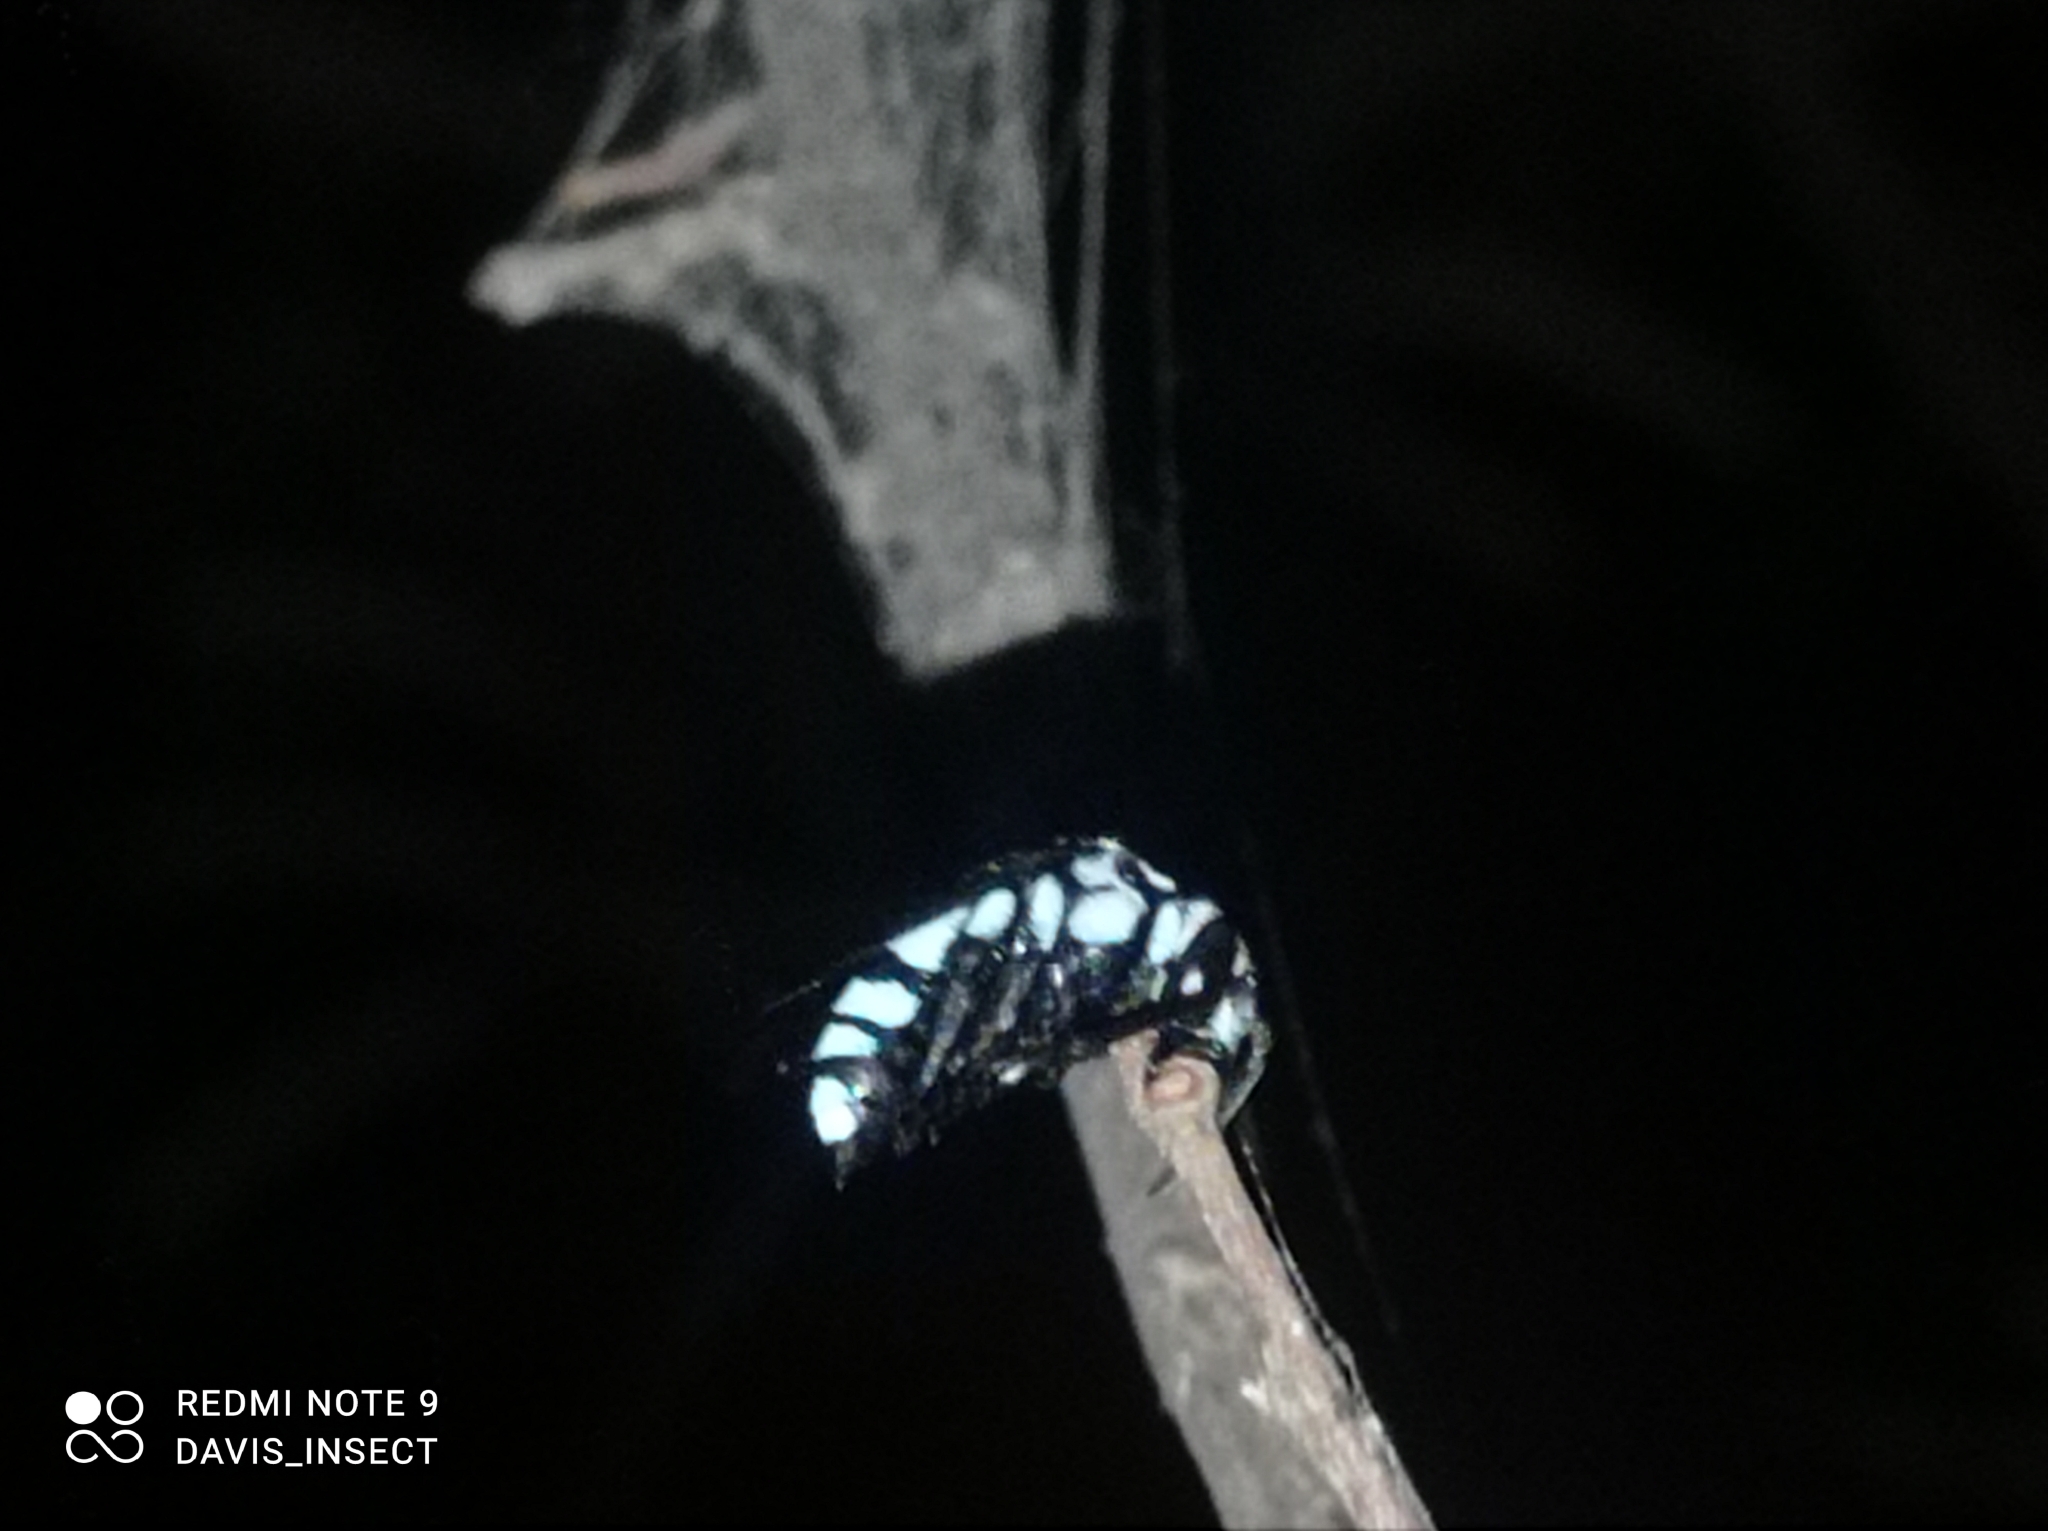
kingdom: Animalia
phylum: Arthropoda
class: Insecta
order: Hymenoptera
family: Apidae
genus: Thyreus
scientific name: Thyreus novaehollandiae
